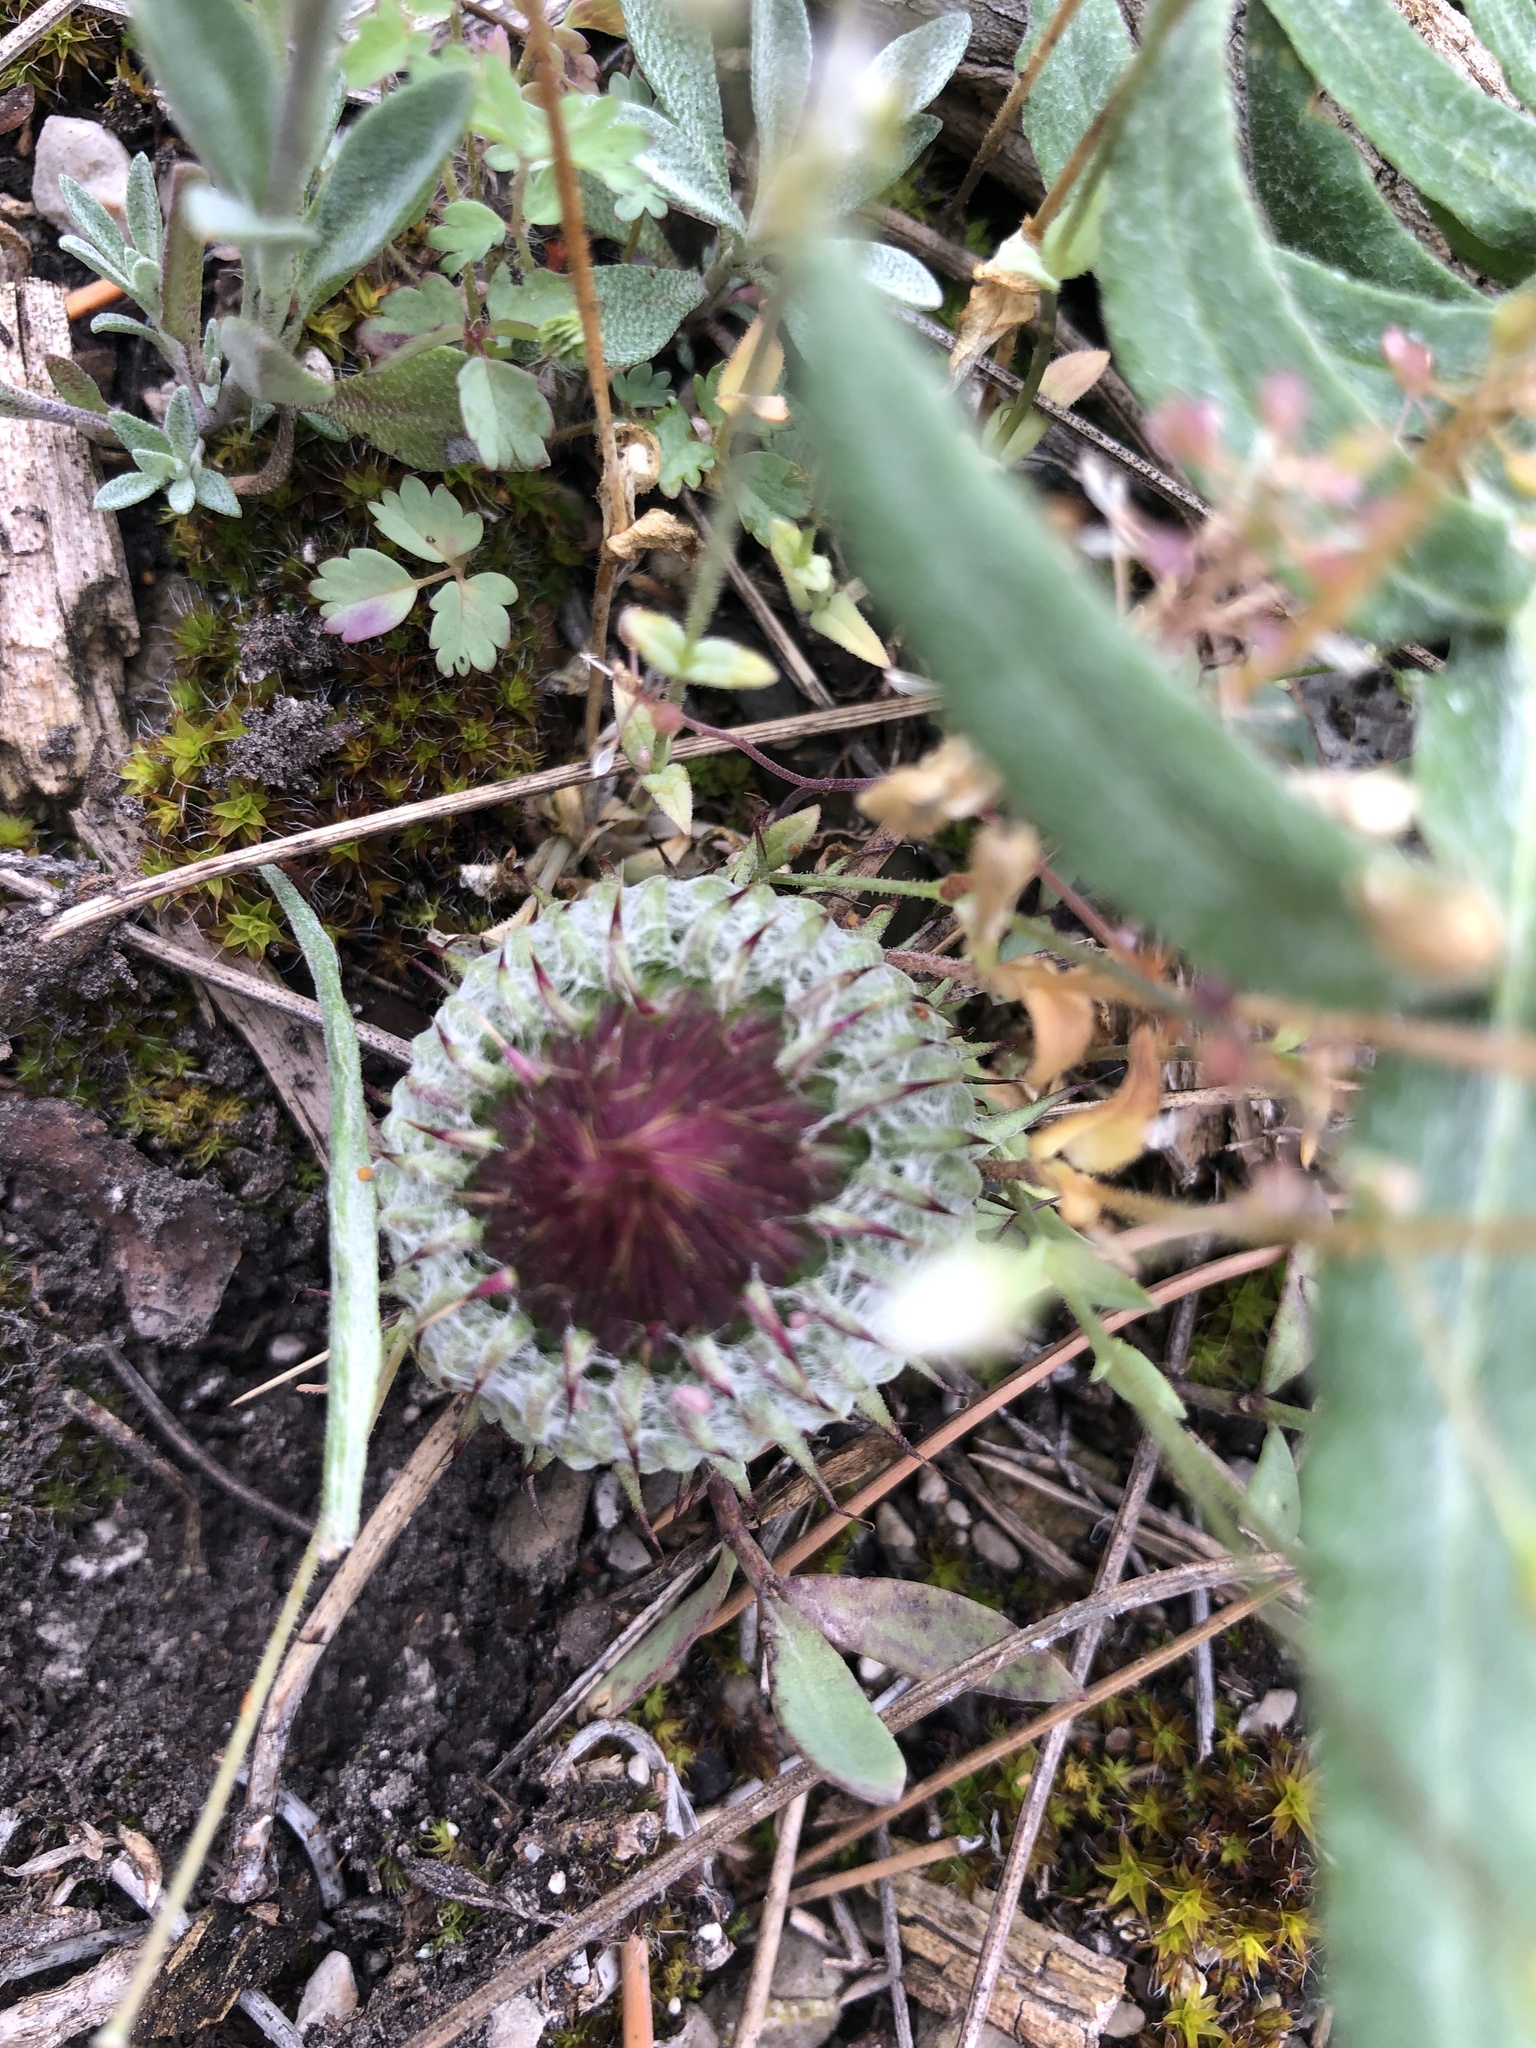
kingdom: Plantae
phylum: Tracheophyta
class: Magnoliopsida
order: Asterales
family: Asteraceae
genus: Jurinea
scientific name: Jurinea mollis
